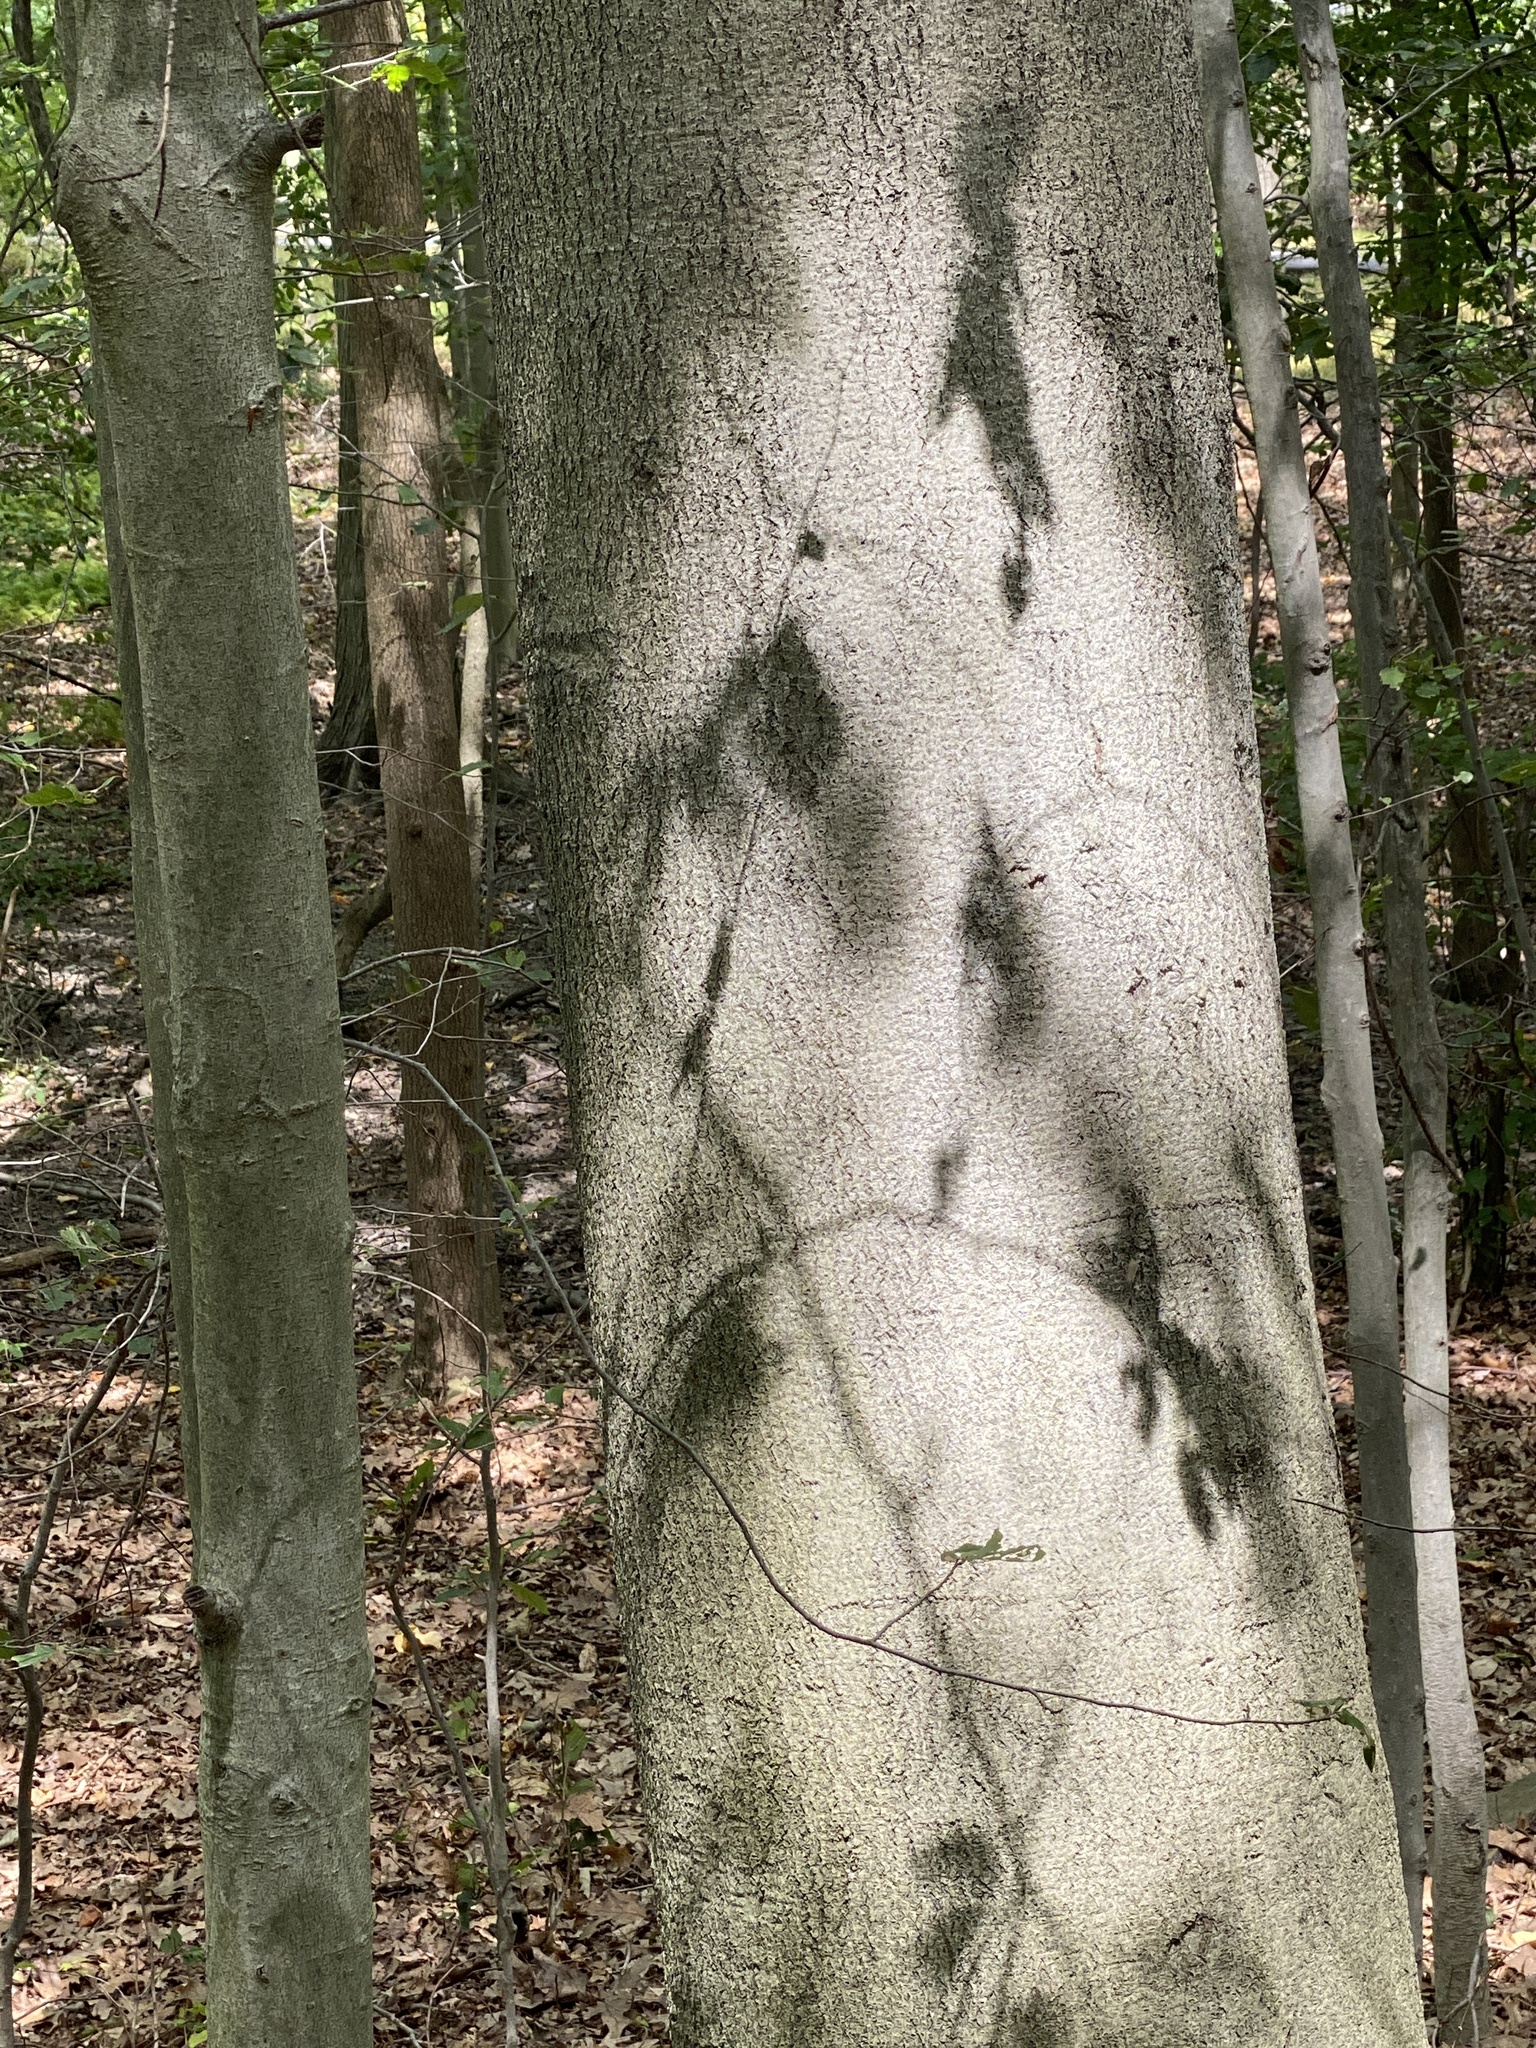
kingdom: Plantae
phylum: Tracheophyta
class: Magnoliopsida
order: Fagales
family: Fagaceae
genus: Fagus
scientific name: Fagus grandifolia
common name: American beech
